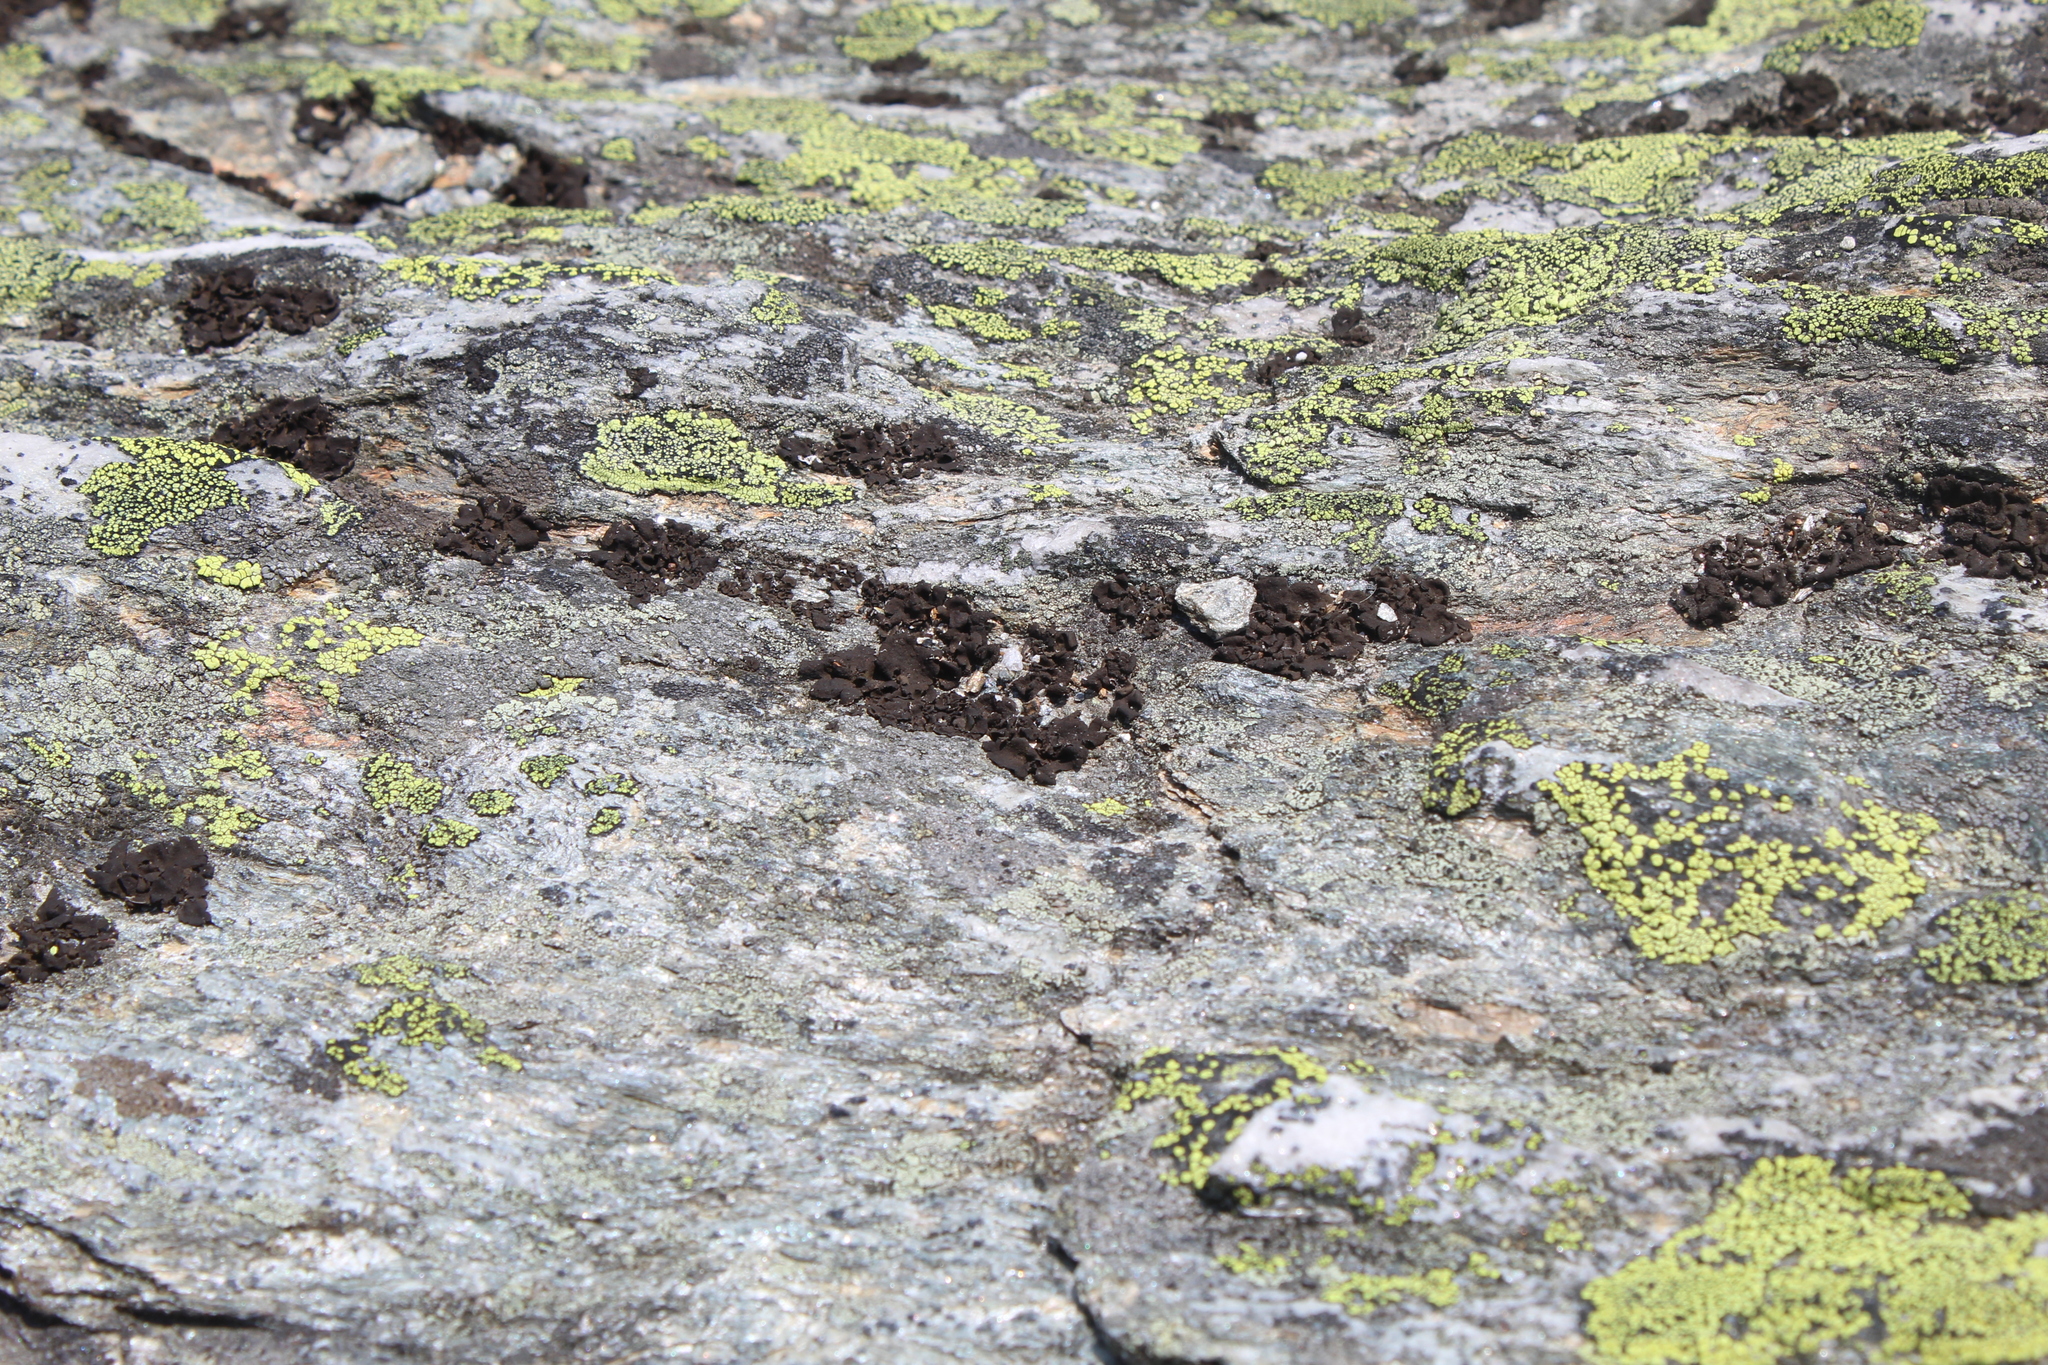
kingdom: Fungi
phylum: Ascomycota
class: Lecanoromycetes
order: Umbilicariales
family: Umbilicariaceae
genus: Umbilicaria
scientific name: Umbilicaria deusta
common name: Peppered rock tripe
